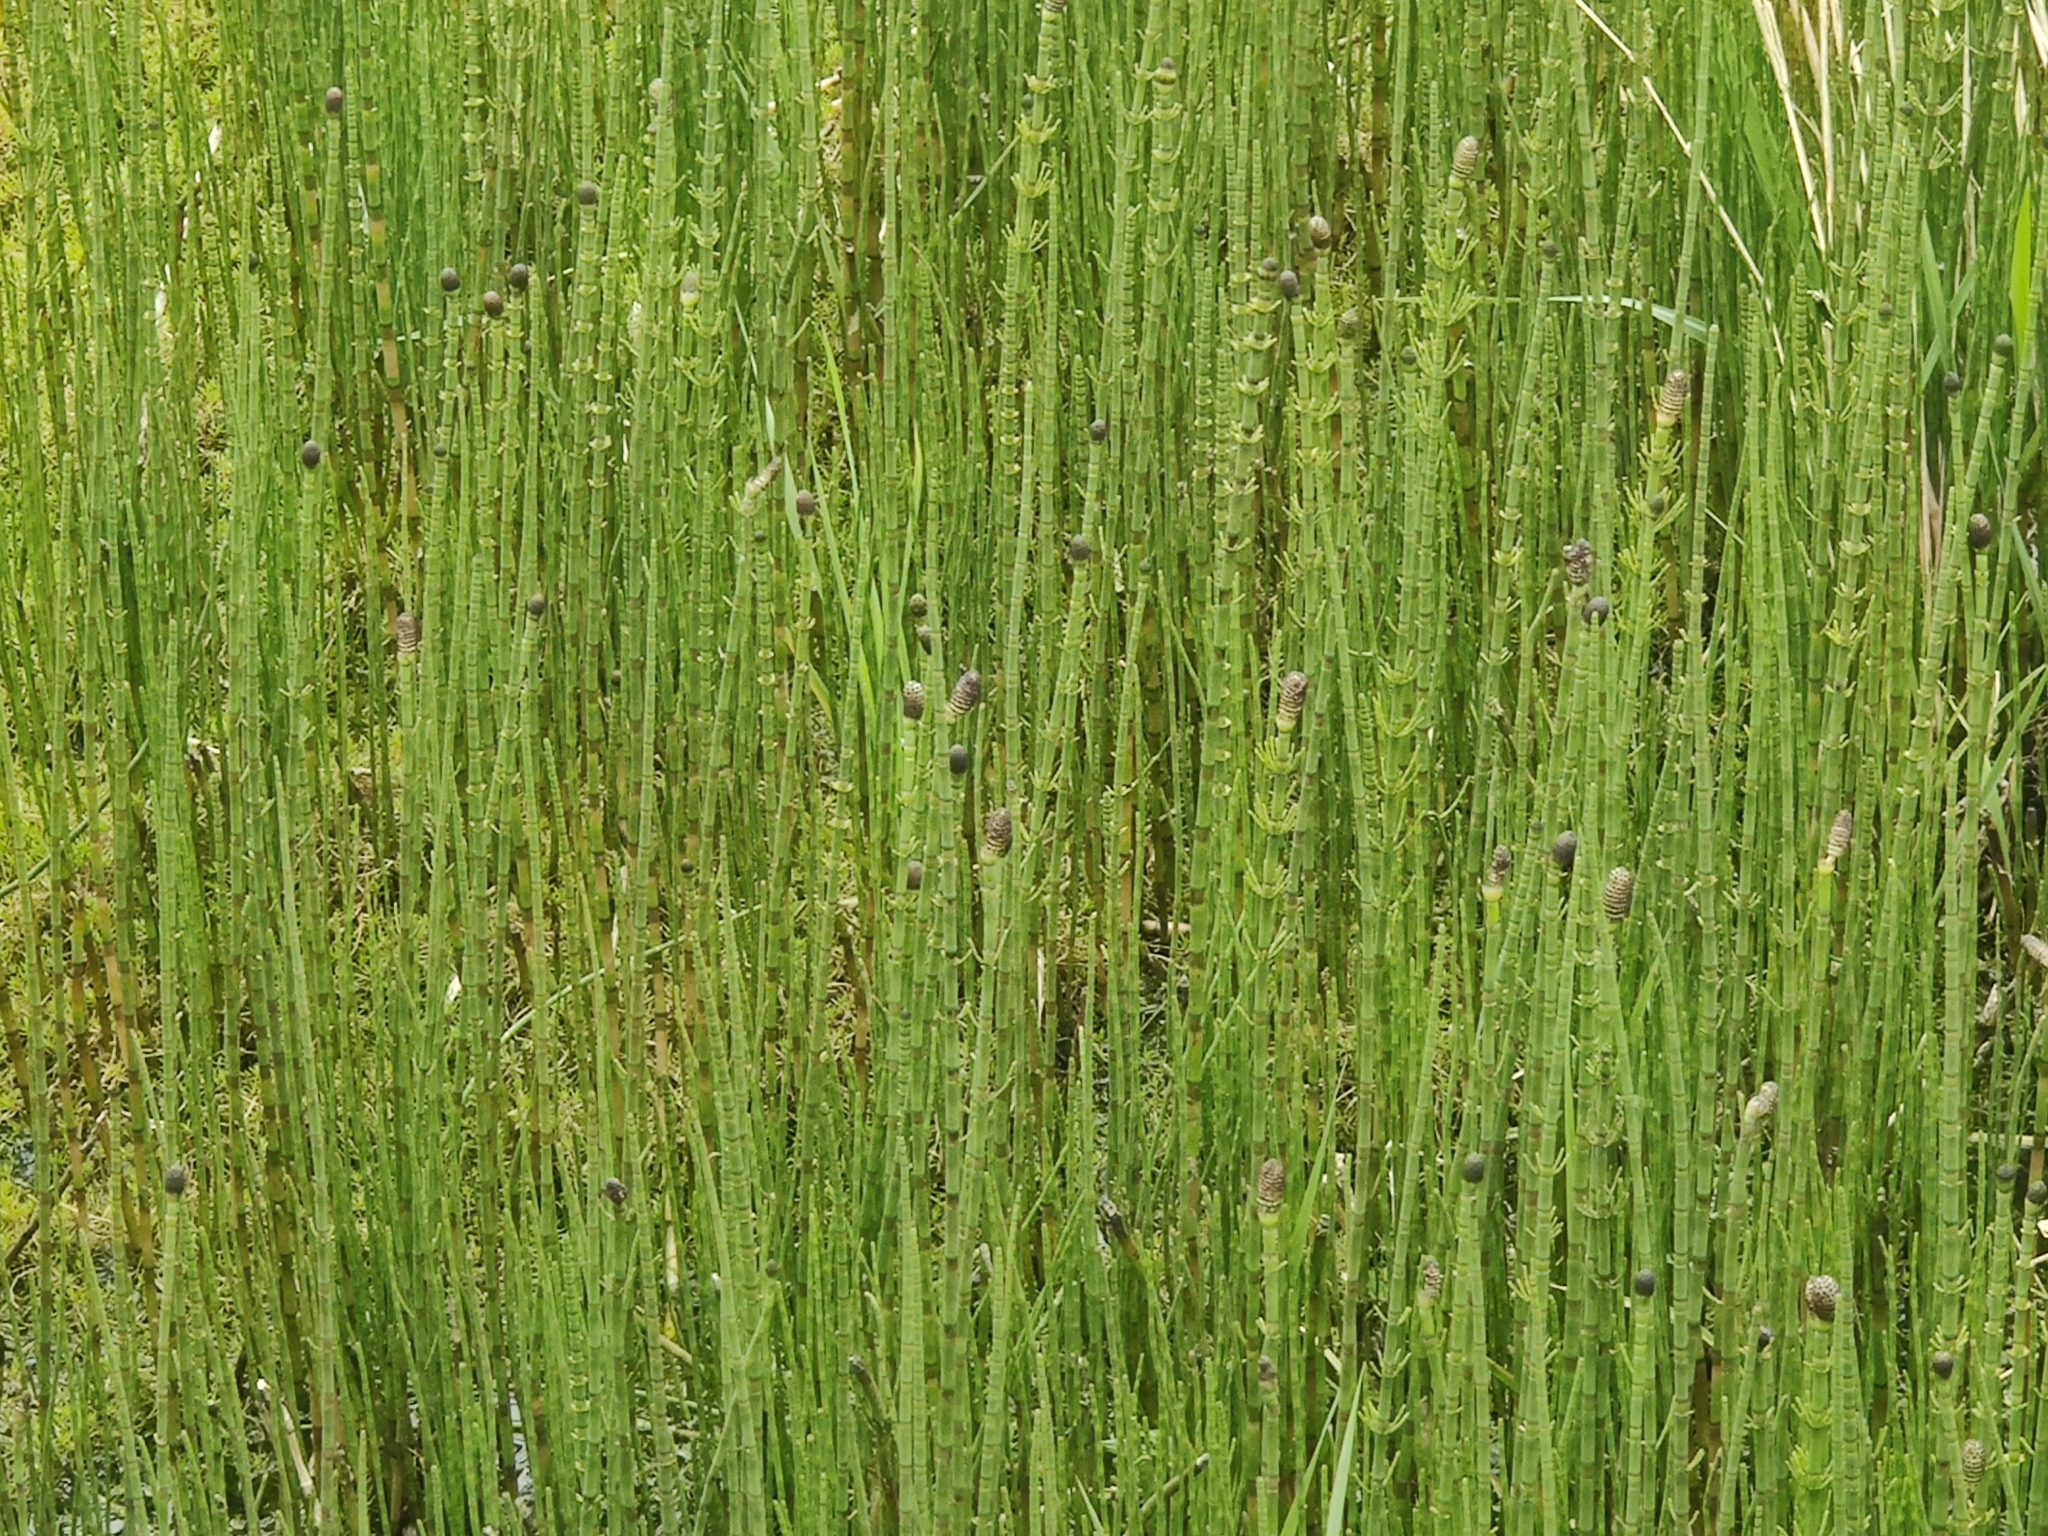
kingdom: Plantae
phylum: Tracheophyta
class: Polypodiopsida
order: Equisetales
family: Equisetaceae
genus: Equisetum
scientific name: Equisetum fluviatile
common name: Water horsetail
